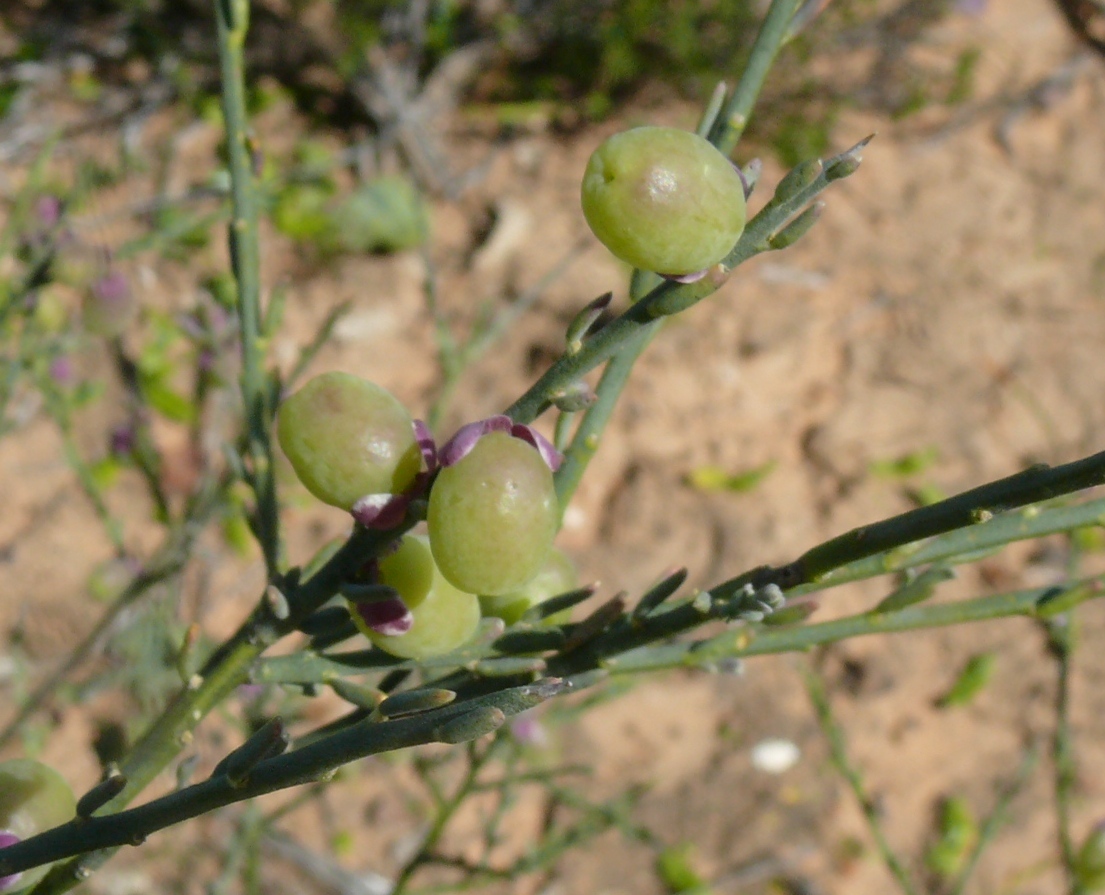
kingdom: Plantae
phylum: Tracheophyta
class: Magnoliopsida
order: Fabales
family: Polygalaceae
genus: Muraltia
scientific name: Muraltia spinosa
